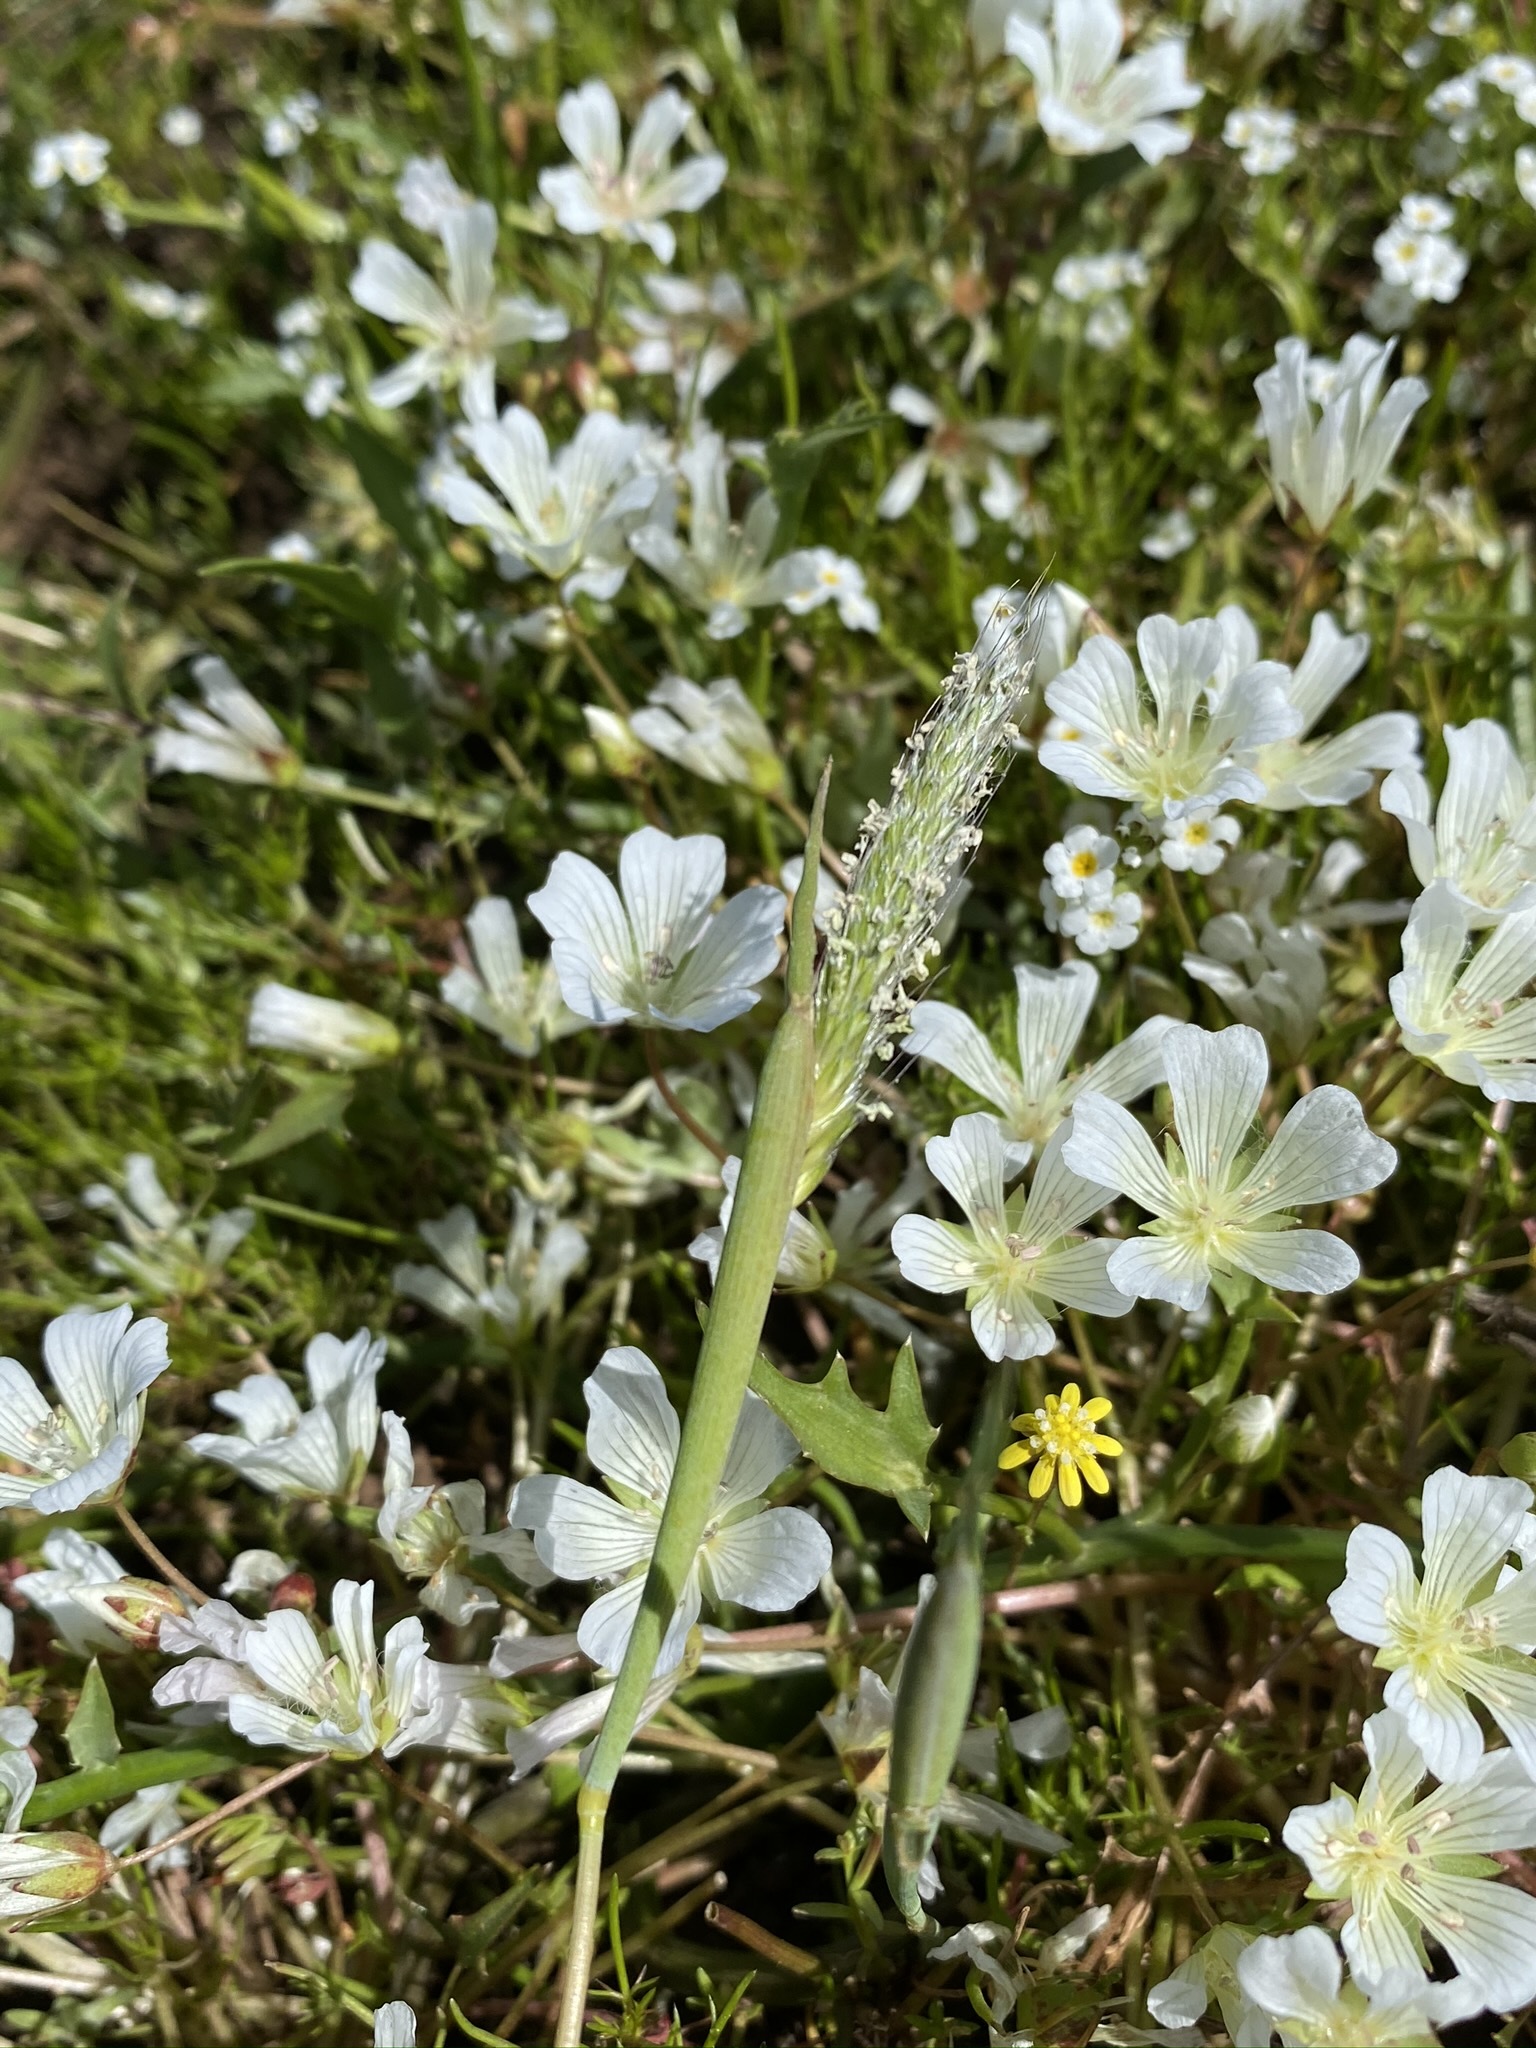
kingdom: Plantae
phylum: Tracheophyta
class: Liliopsida
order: Poales
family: Poaceae
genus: Alopecurus
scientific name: Alopecurus saccatus
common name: Pacific foxtail
